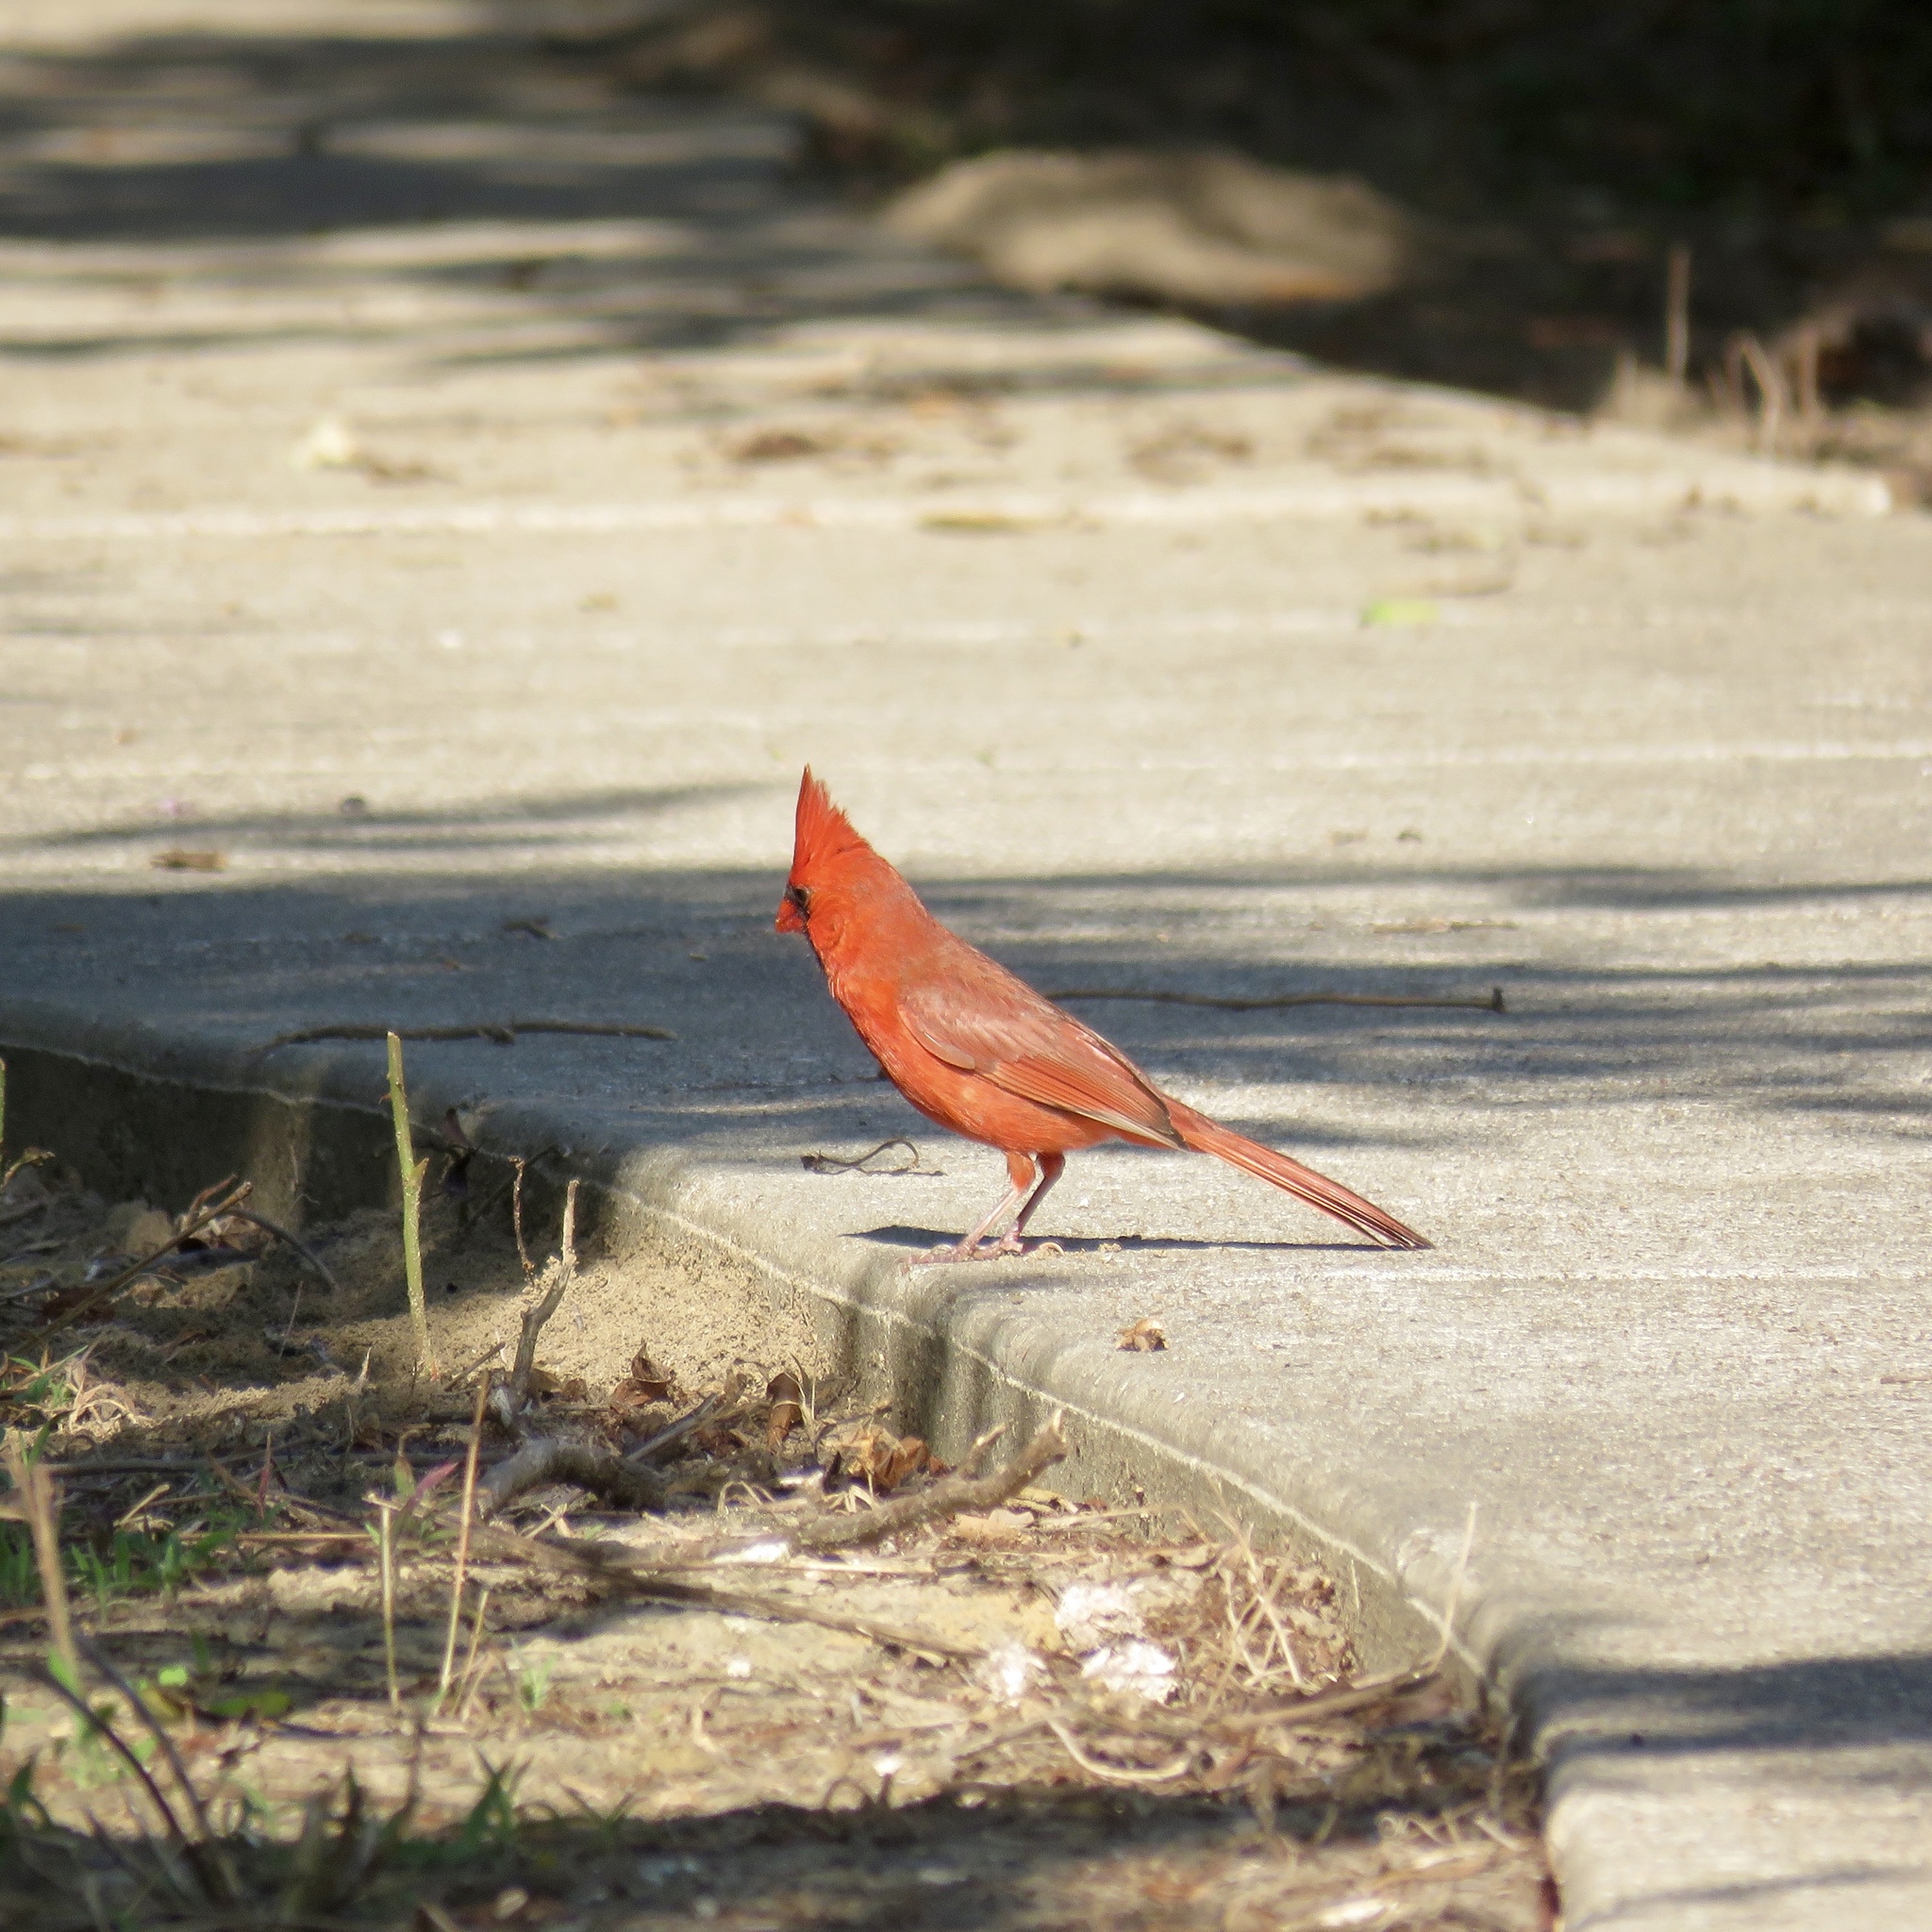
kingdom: Animalia
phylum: Chordata
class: Aves
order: Passeriformes
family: Cardinalidae
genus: Cardinalis
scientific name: Cardinalis cardinalis
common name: Northern cardinal
